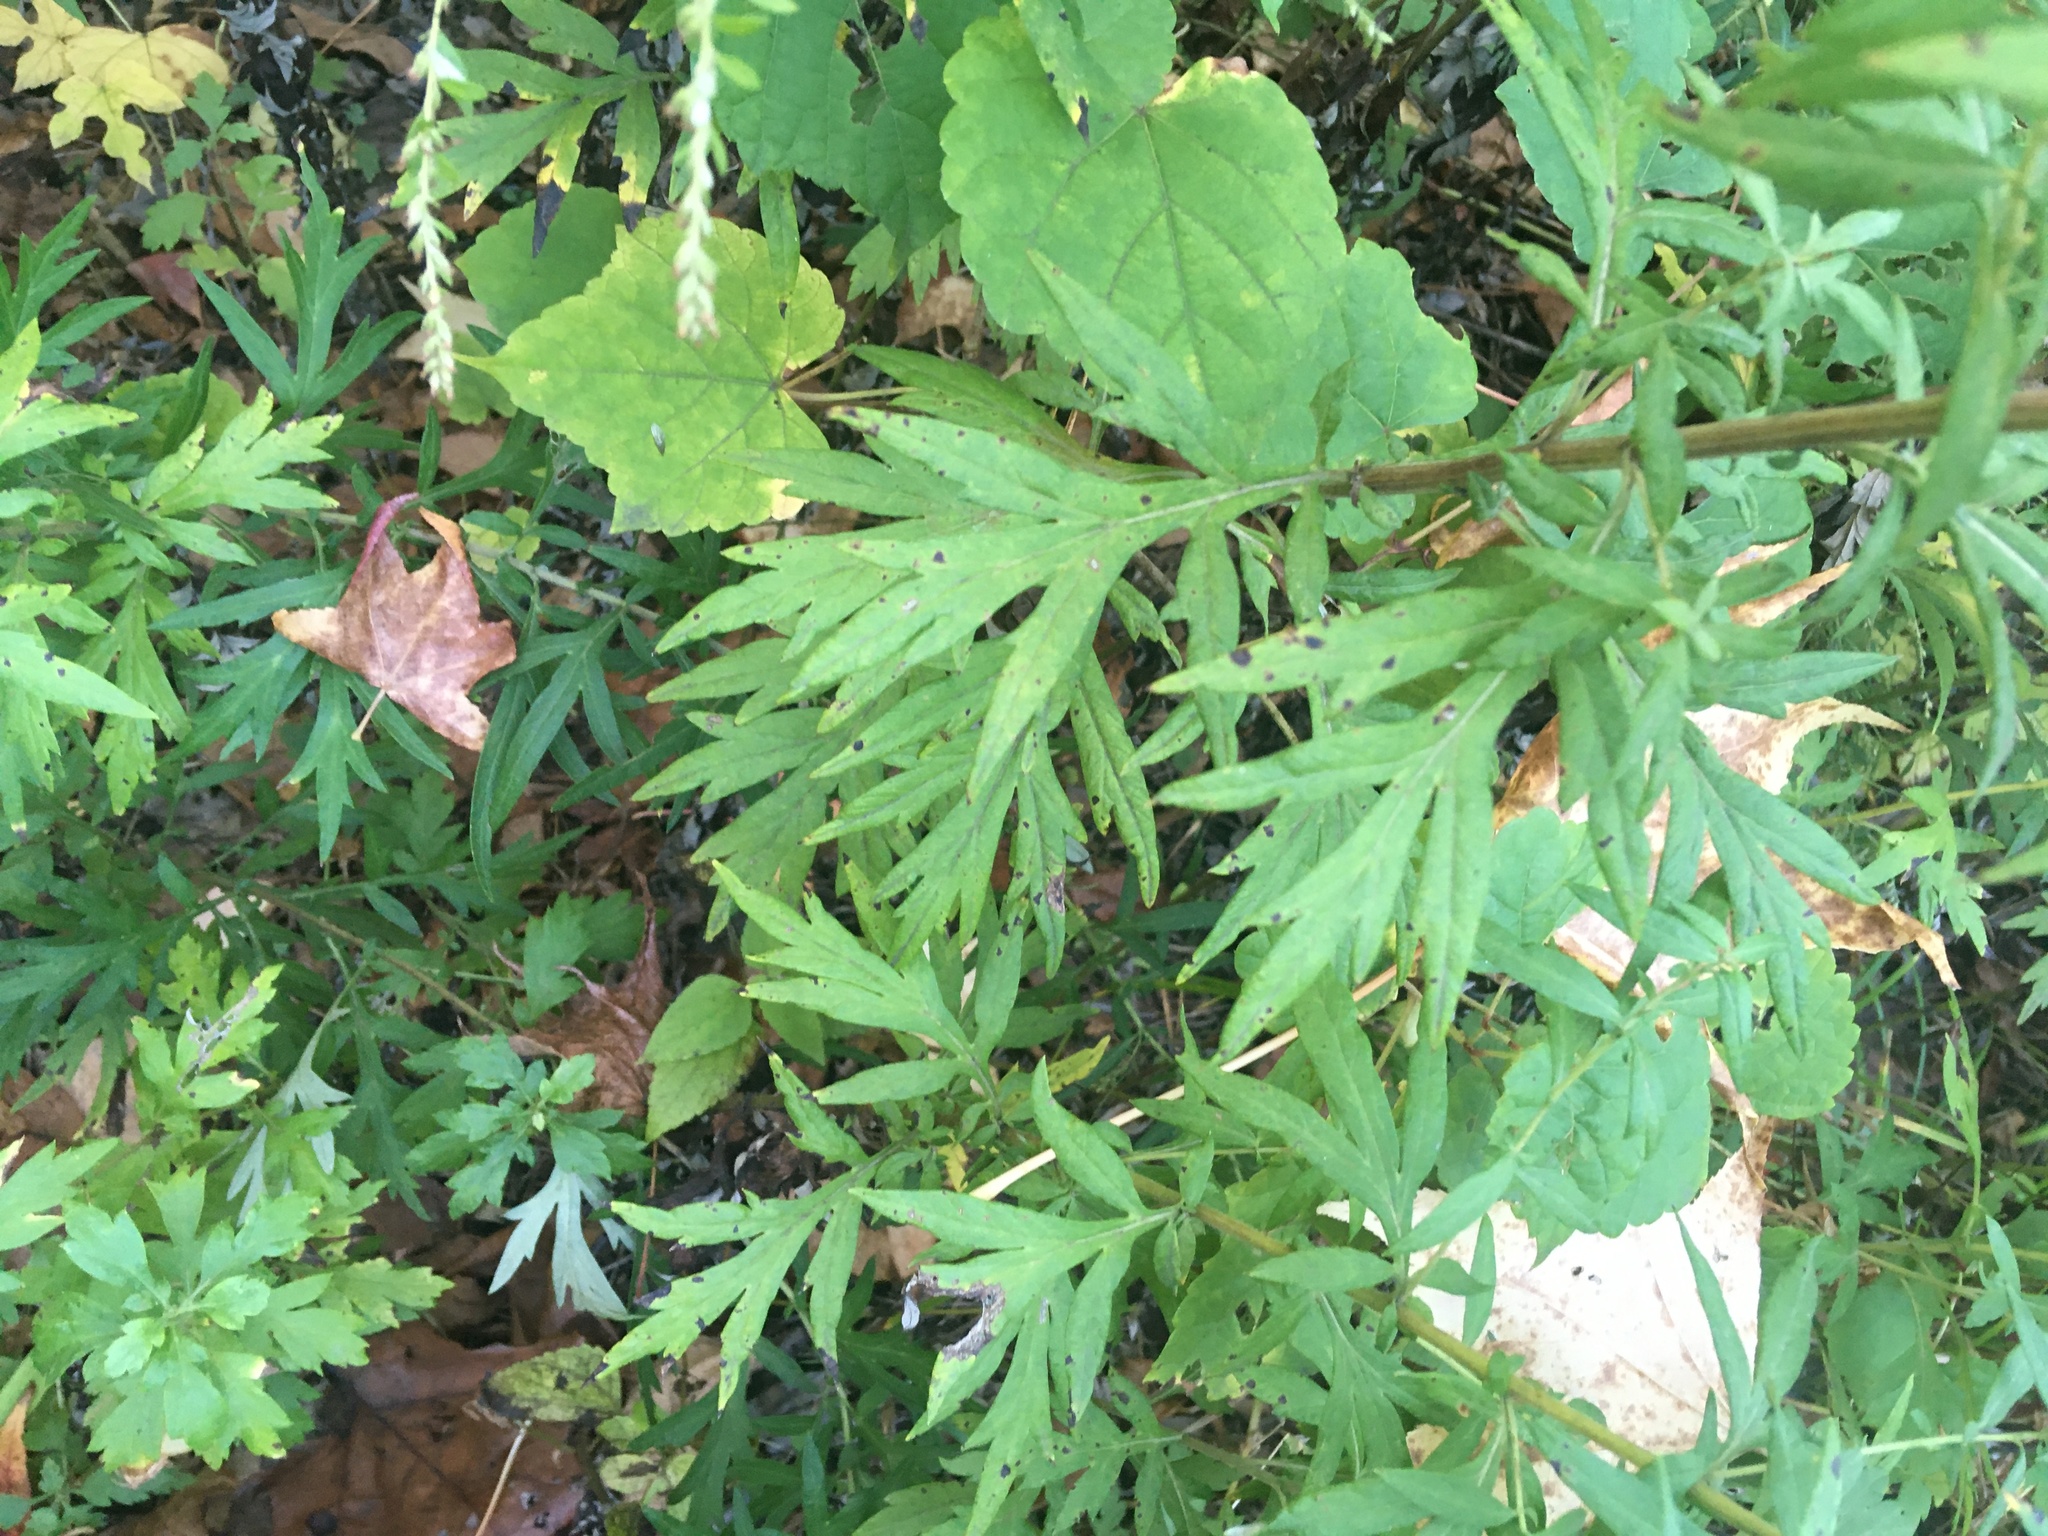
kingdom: Plantae
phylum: Tracheophyta
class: Magnoliopsida
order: Asterales
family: Asteraceae
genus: Artemisia
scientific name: Artemisia vulgaris
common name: Mugwort
